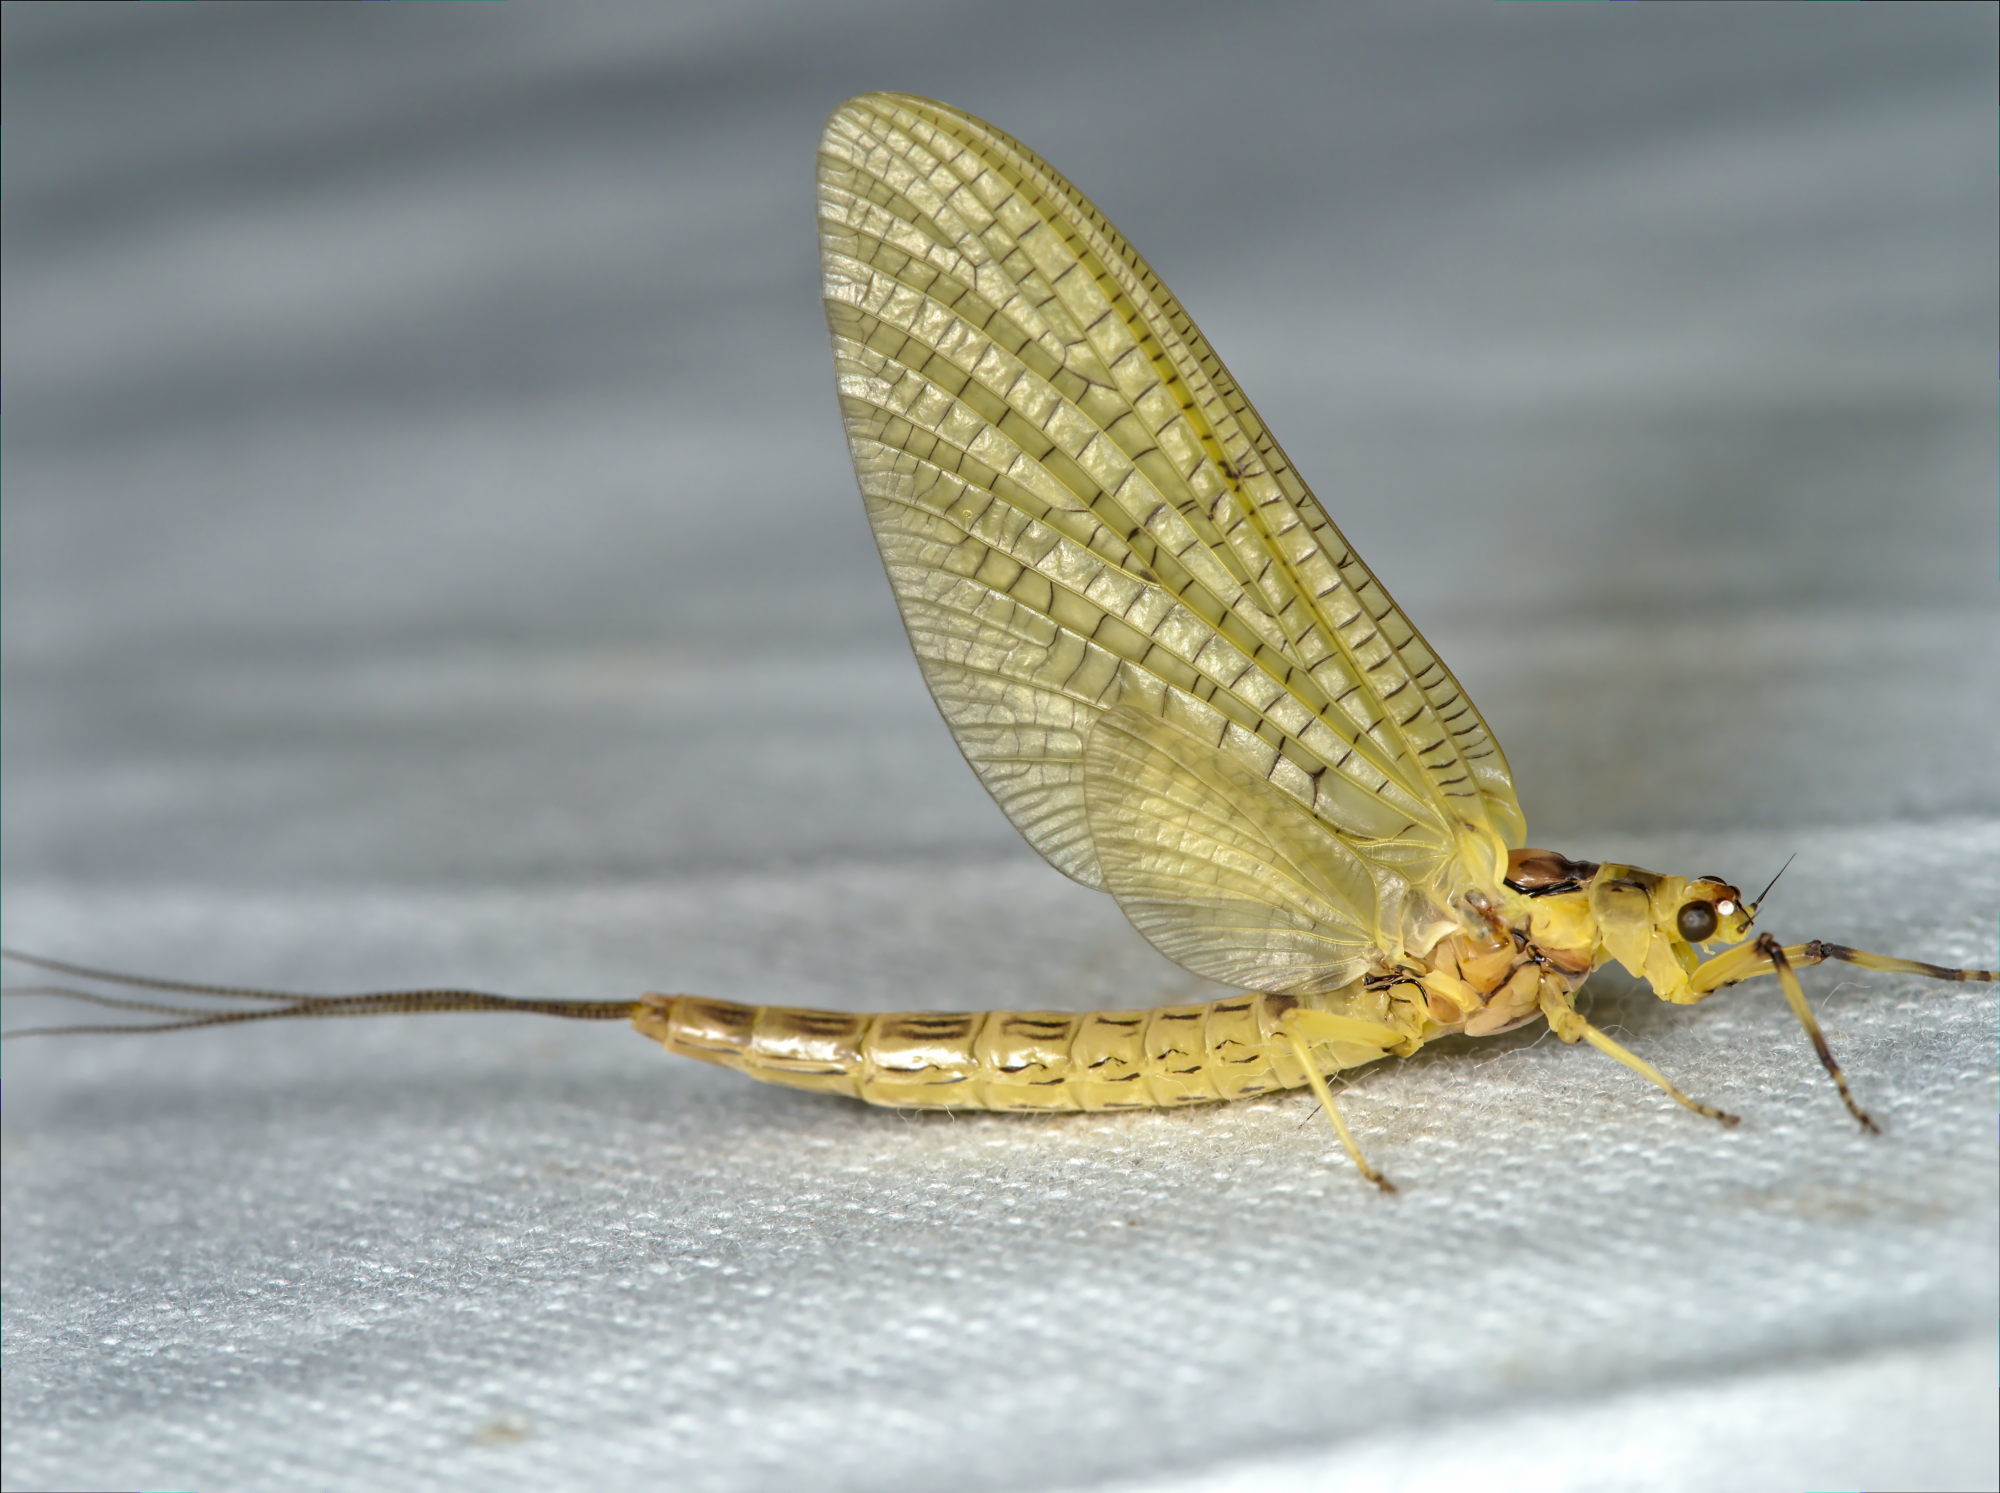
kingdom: Animalia
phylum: Arthropoda
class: Insecta
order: Ephemeroptera
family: Ephemeridae
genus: Ephemera
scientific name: Ephemera lineata
